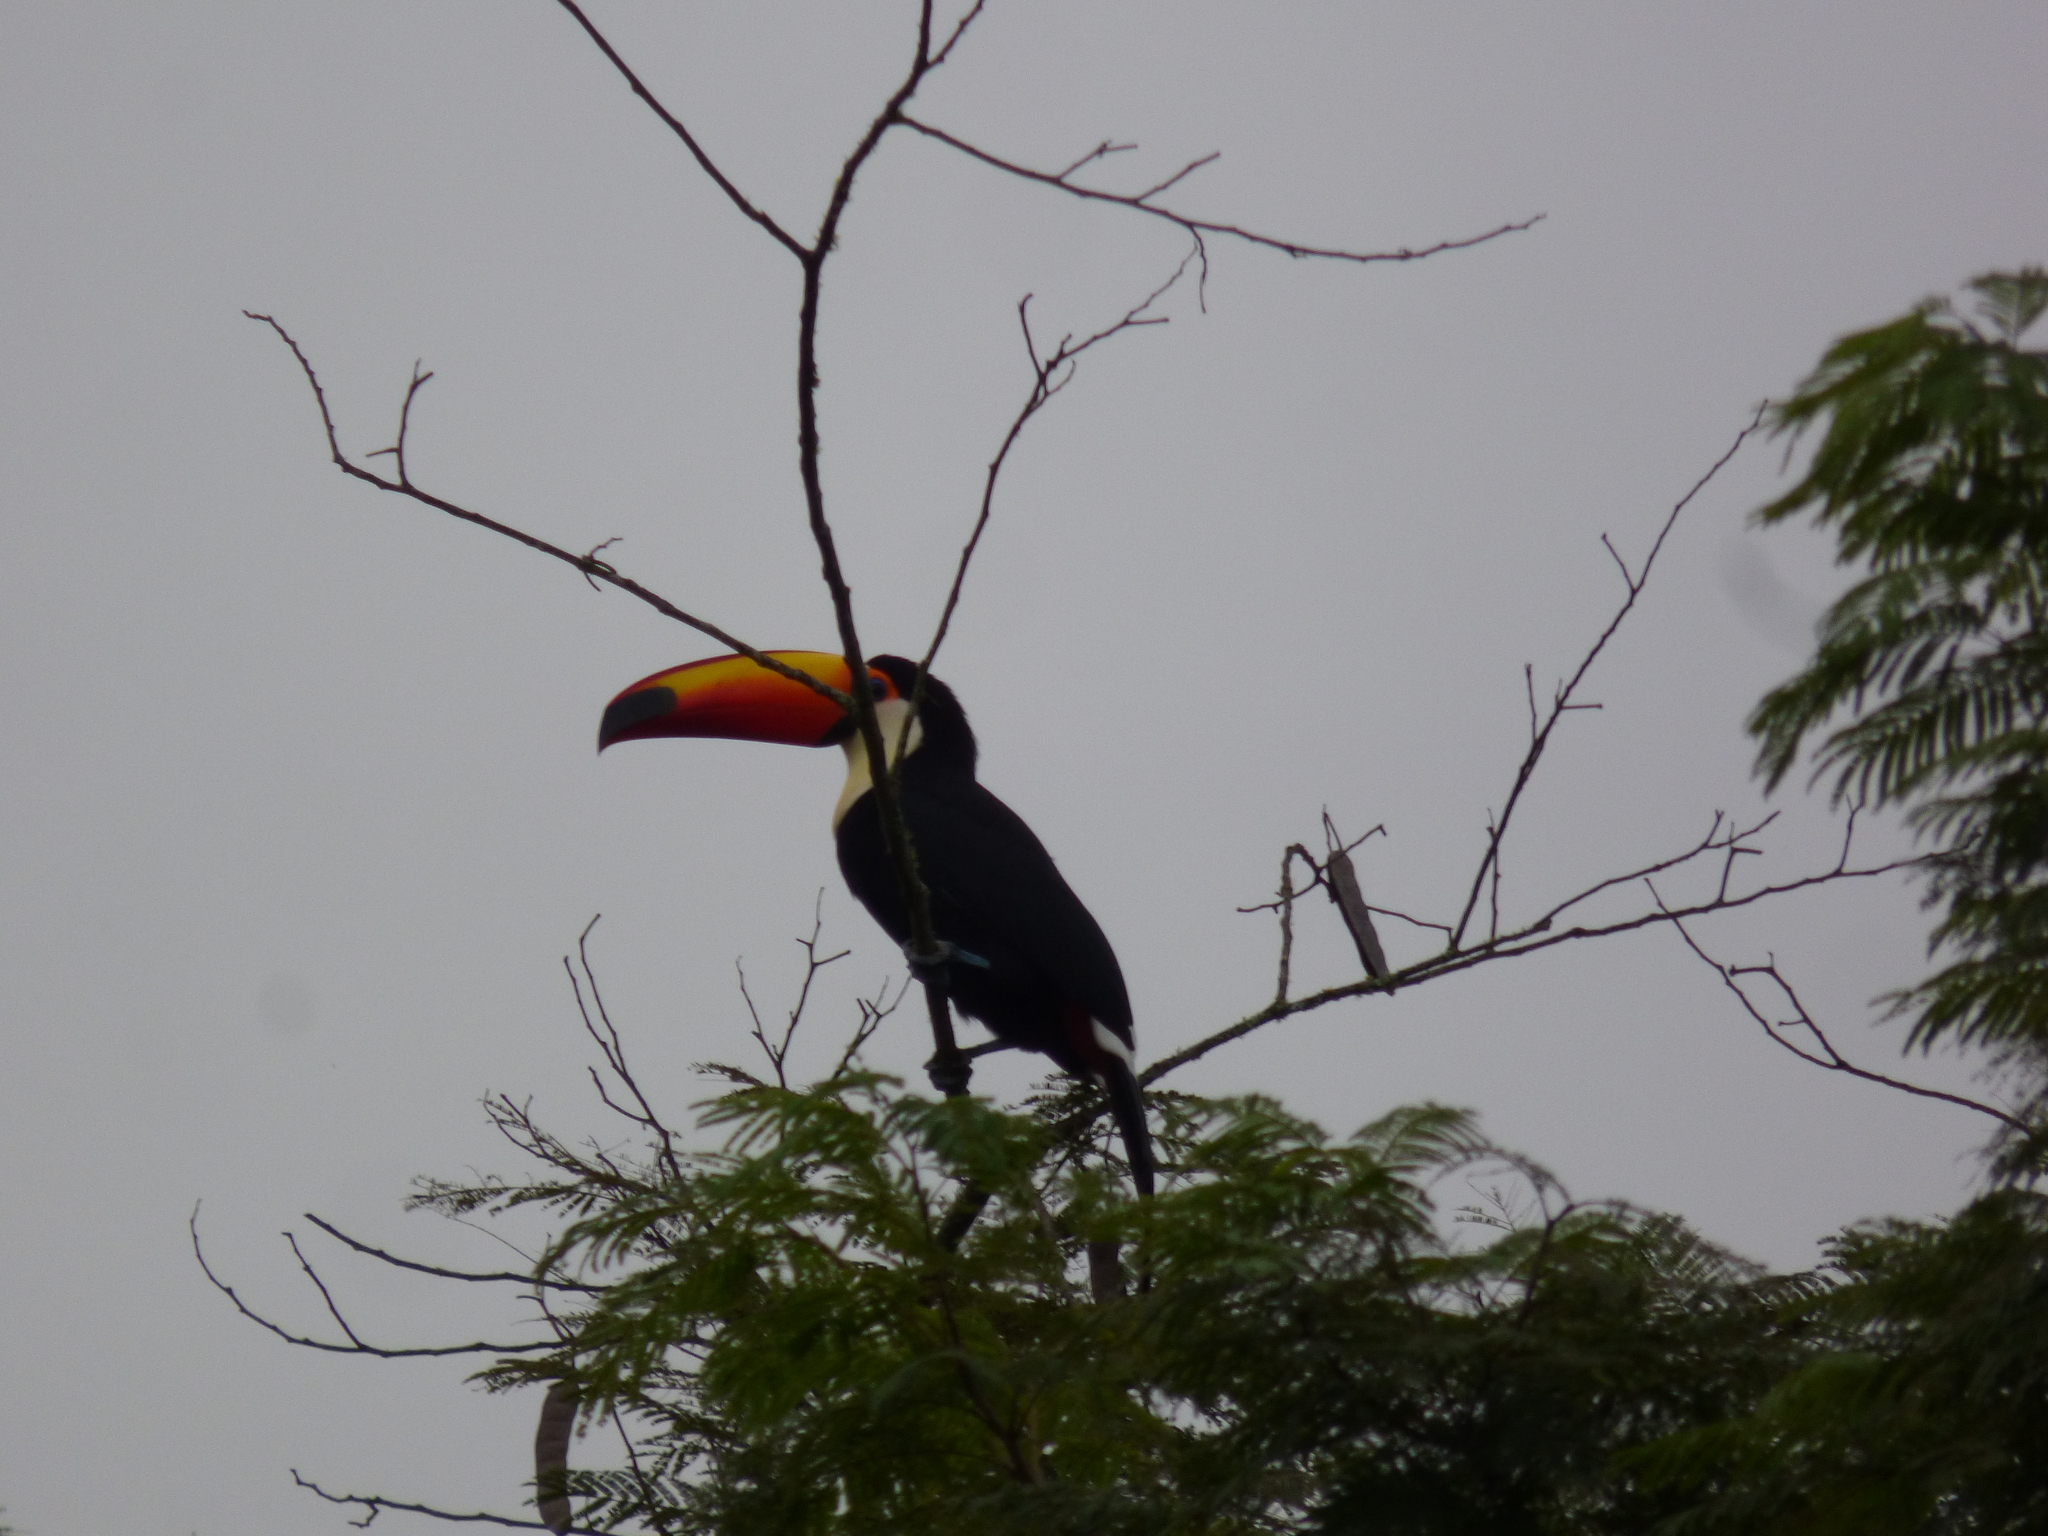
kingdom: Animalia
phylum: Chordata
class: Aves
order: Piciformes
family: Ramphastidae
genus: Ramphastos
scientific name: Ramphastos toco
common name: Toco toucan
